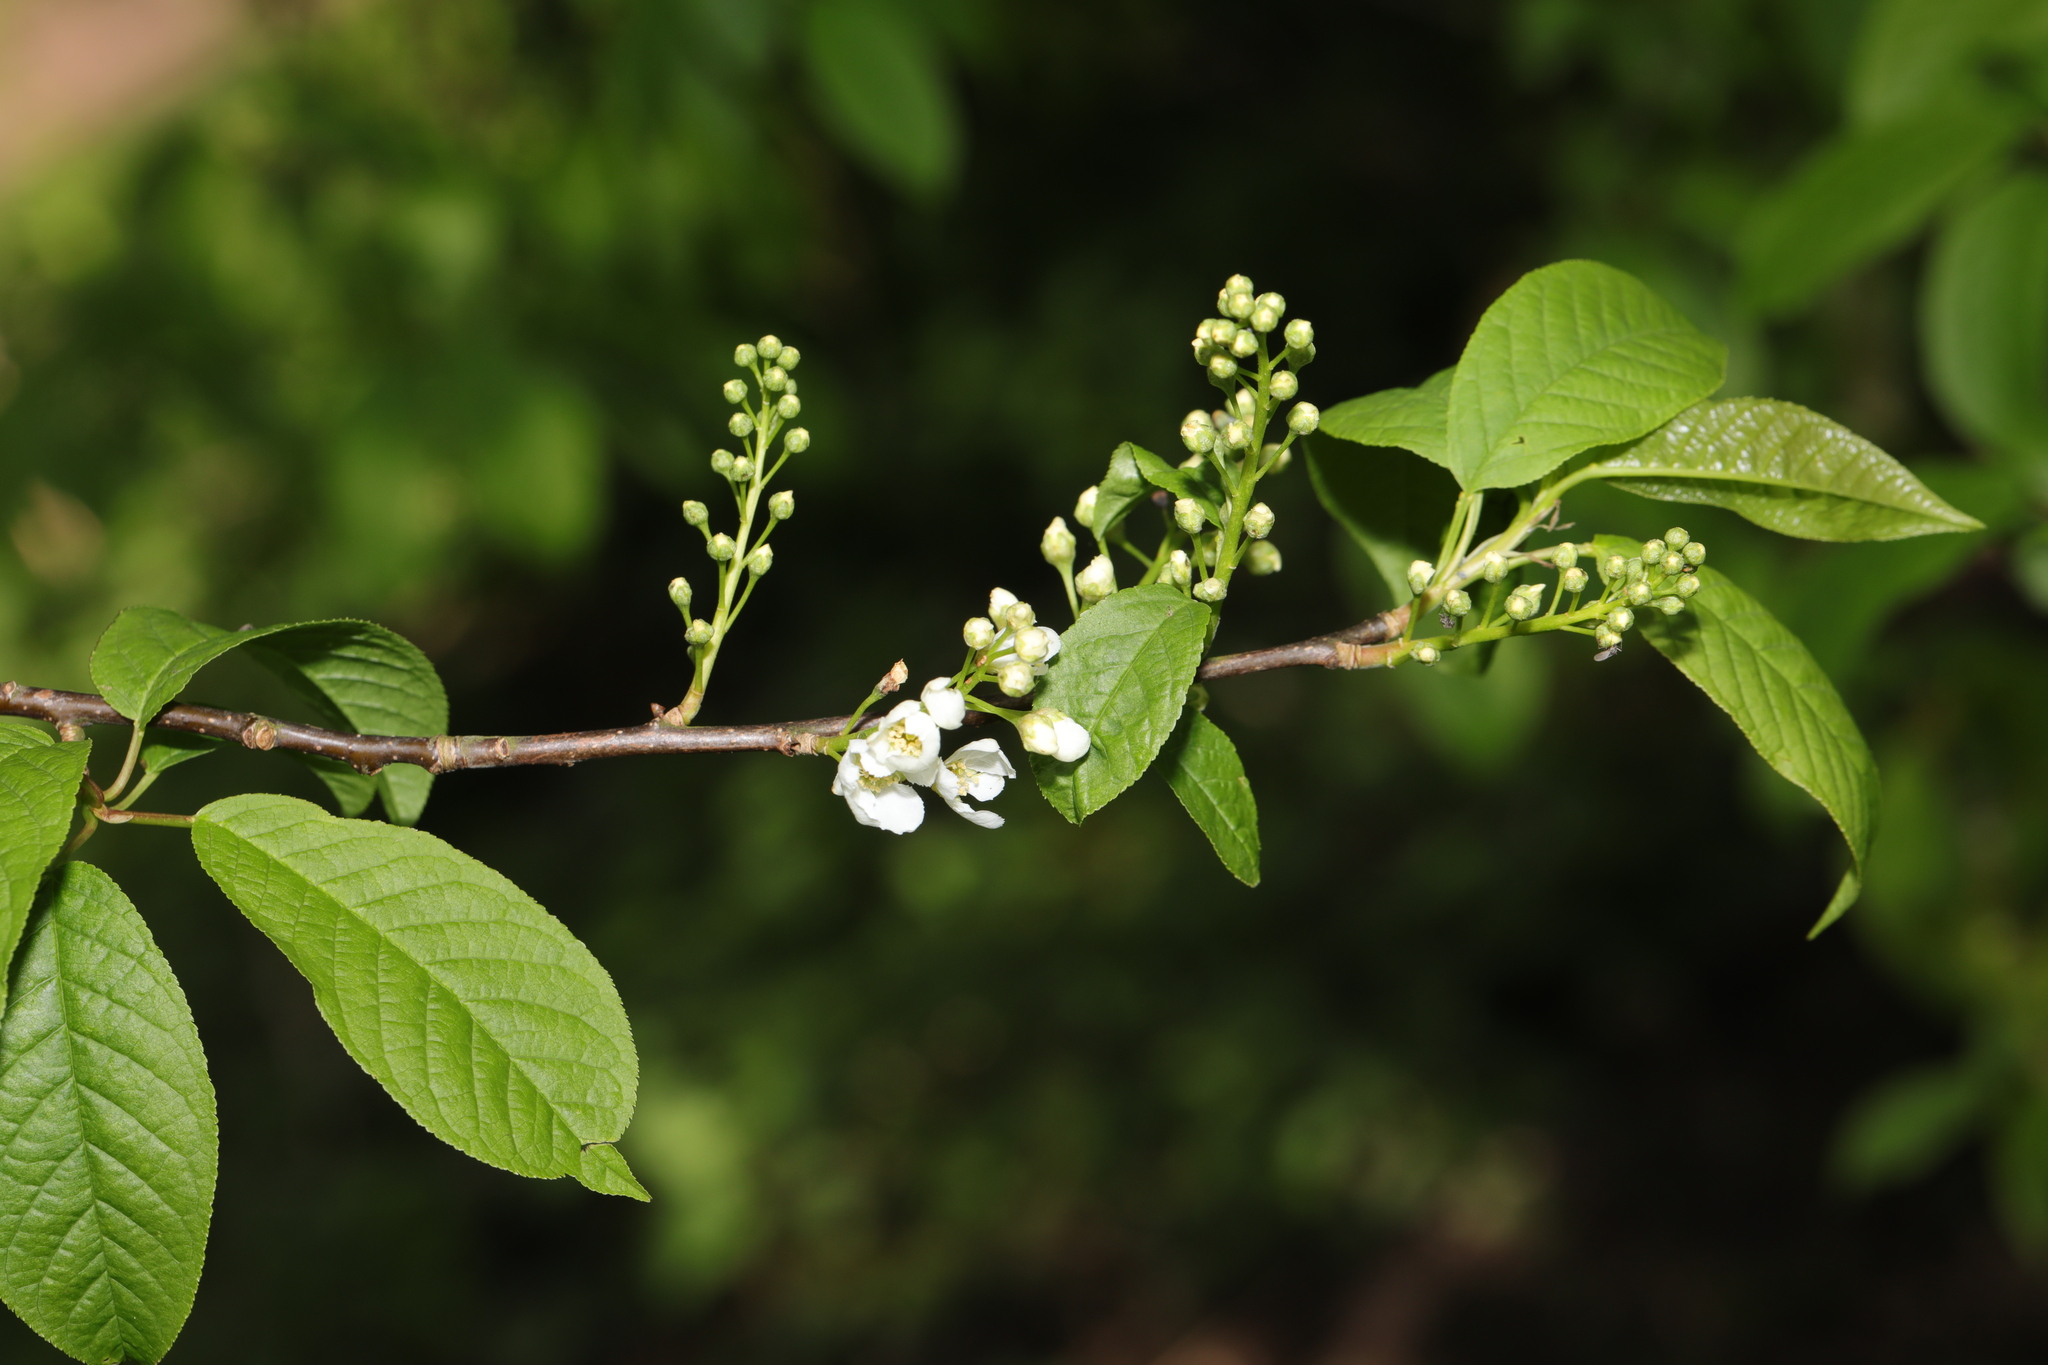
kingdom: Plantae
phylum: Tracheophyta
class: Magnoliopsida
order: Rosales
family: Rosaceae
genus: Prunus
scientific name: Prunus padus
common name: Bird cherry
